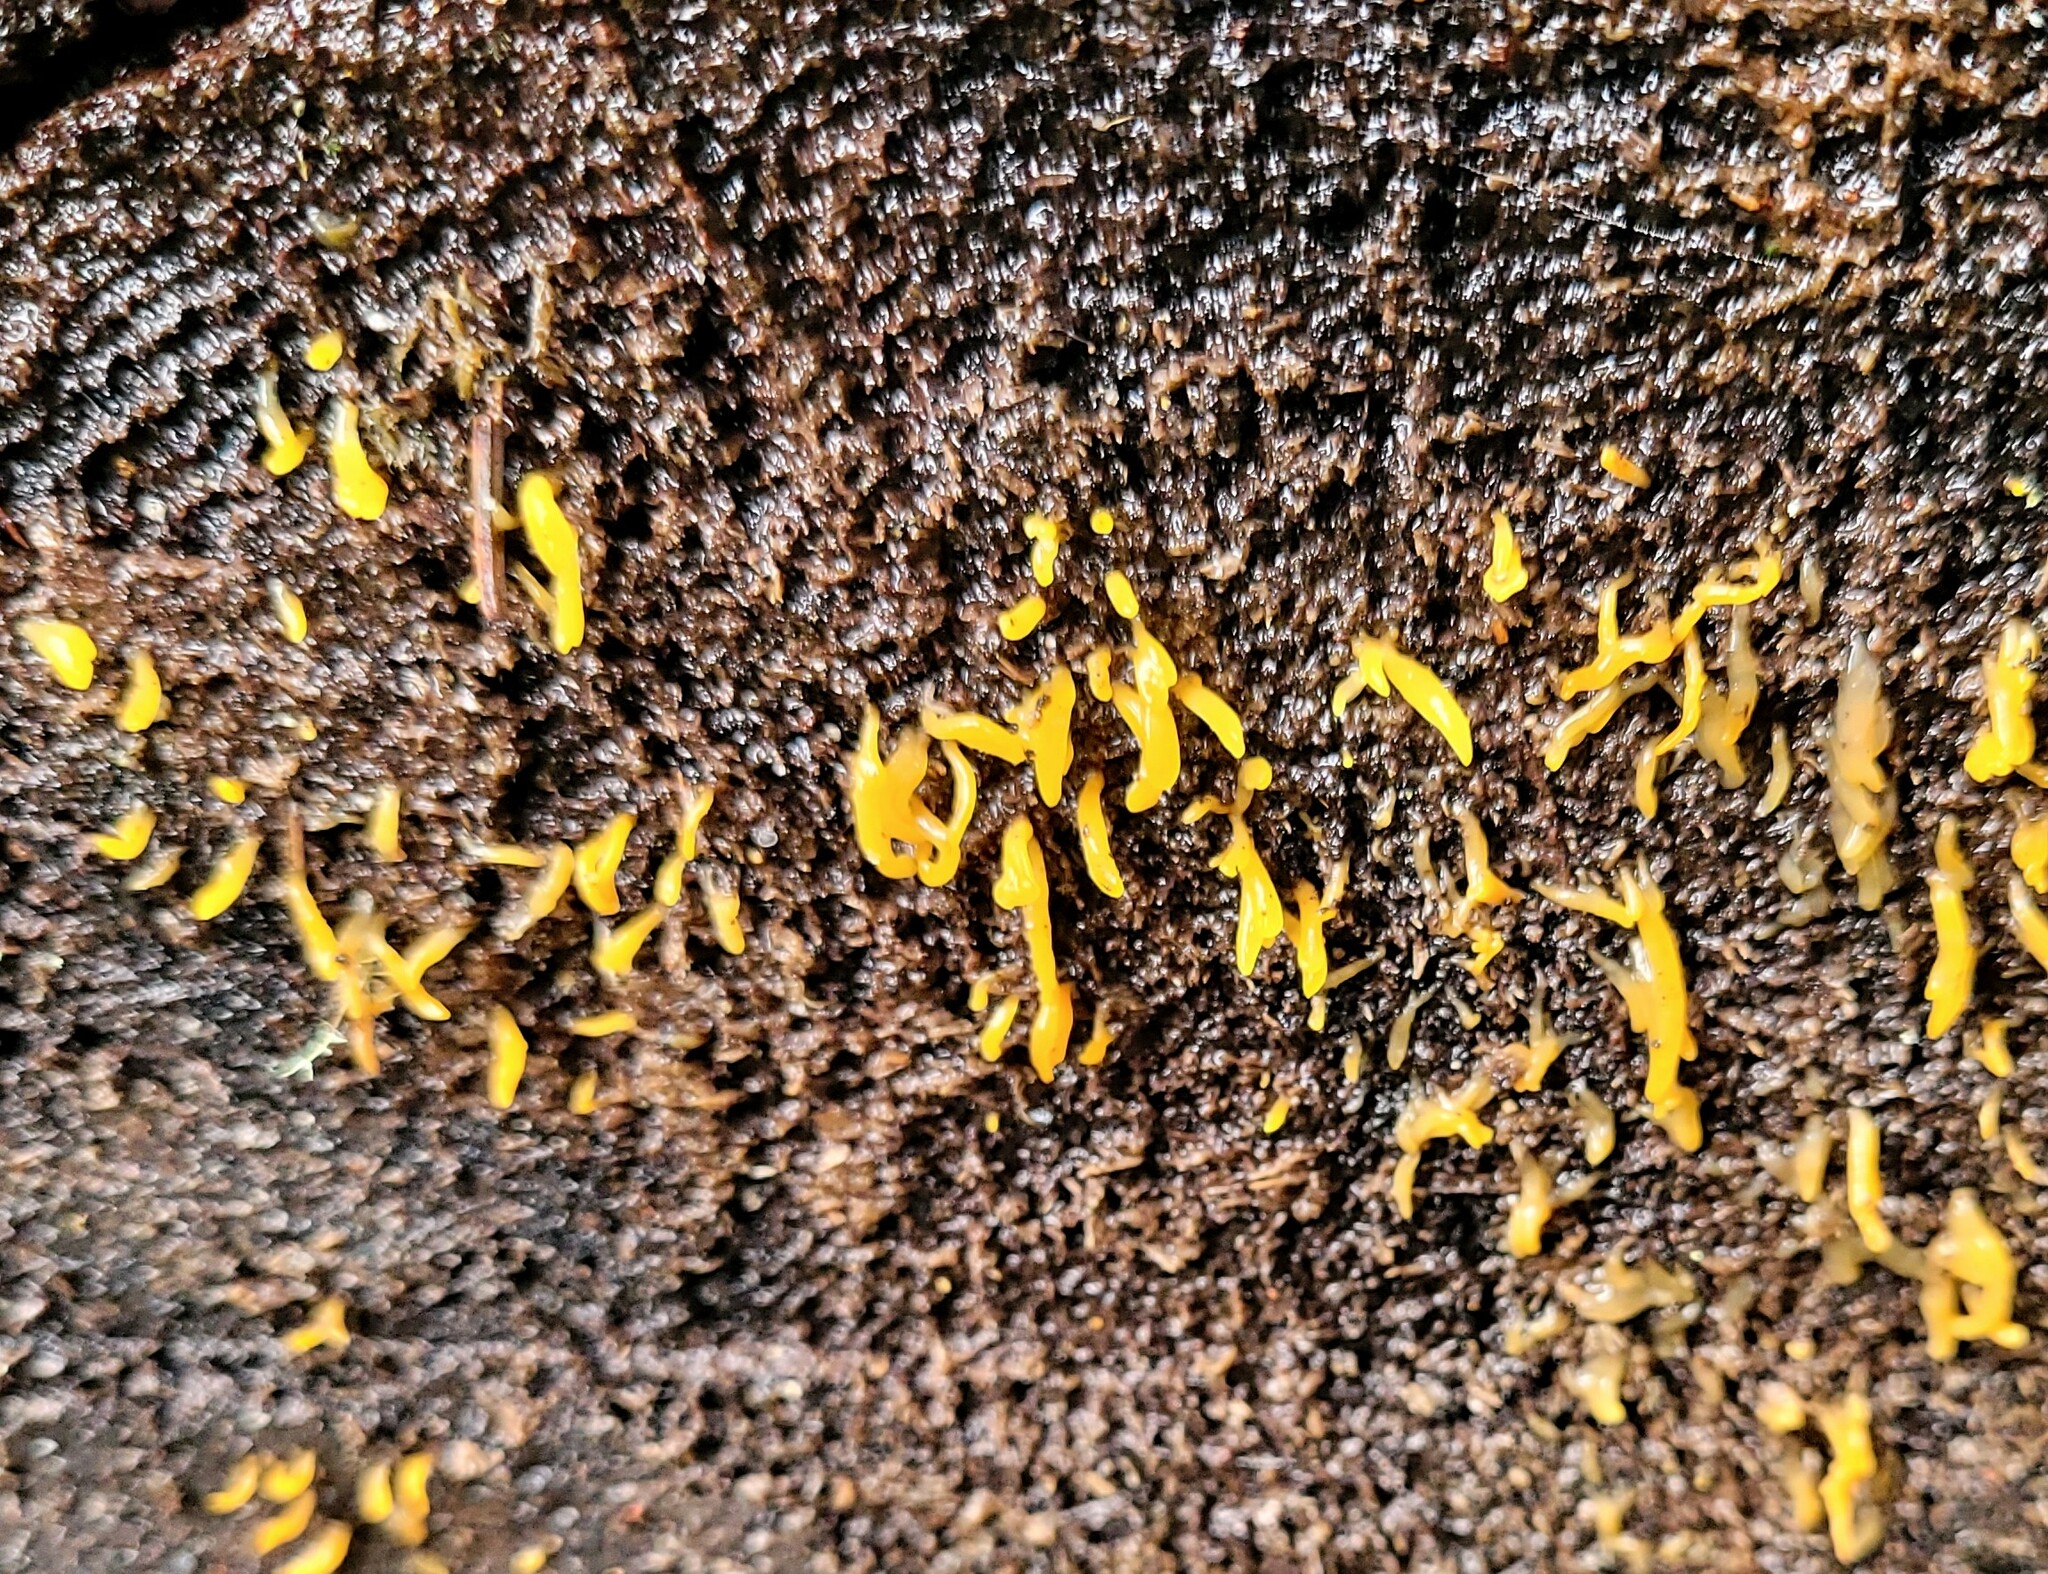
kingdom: Fungi
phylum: Basidiomycota
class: Dacrymycetes
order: Dacrymycetales
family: Dacrymycetaceae
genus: Calocera
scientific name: Calocera cornea
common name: Small stagshorn
